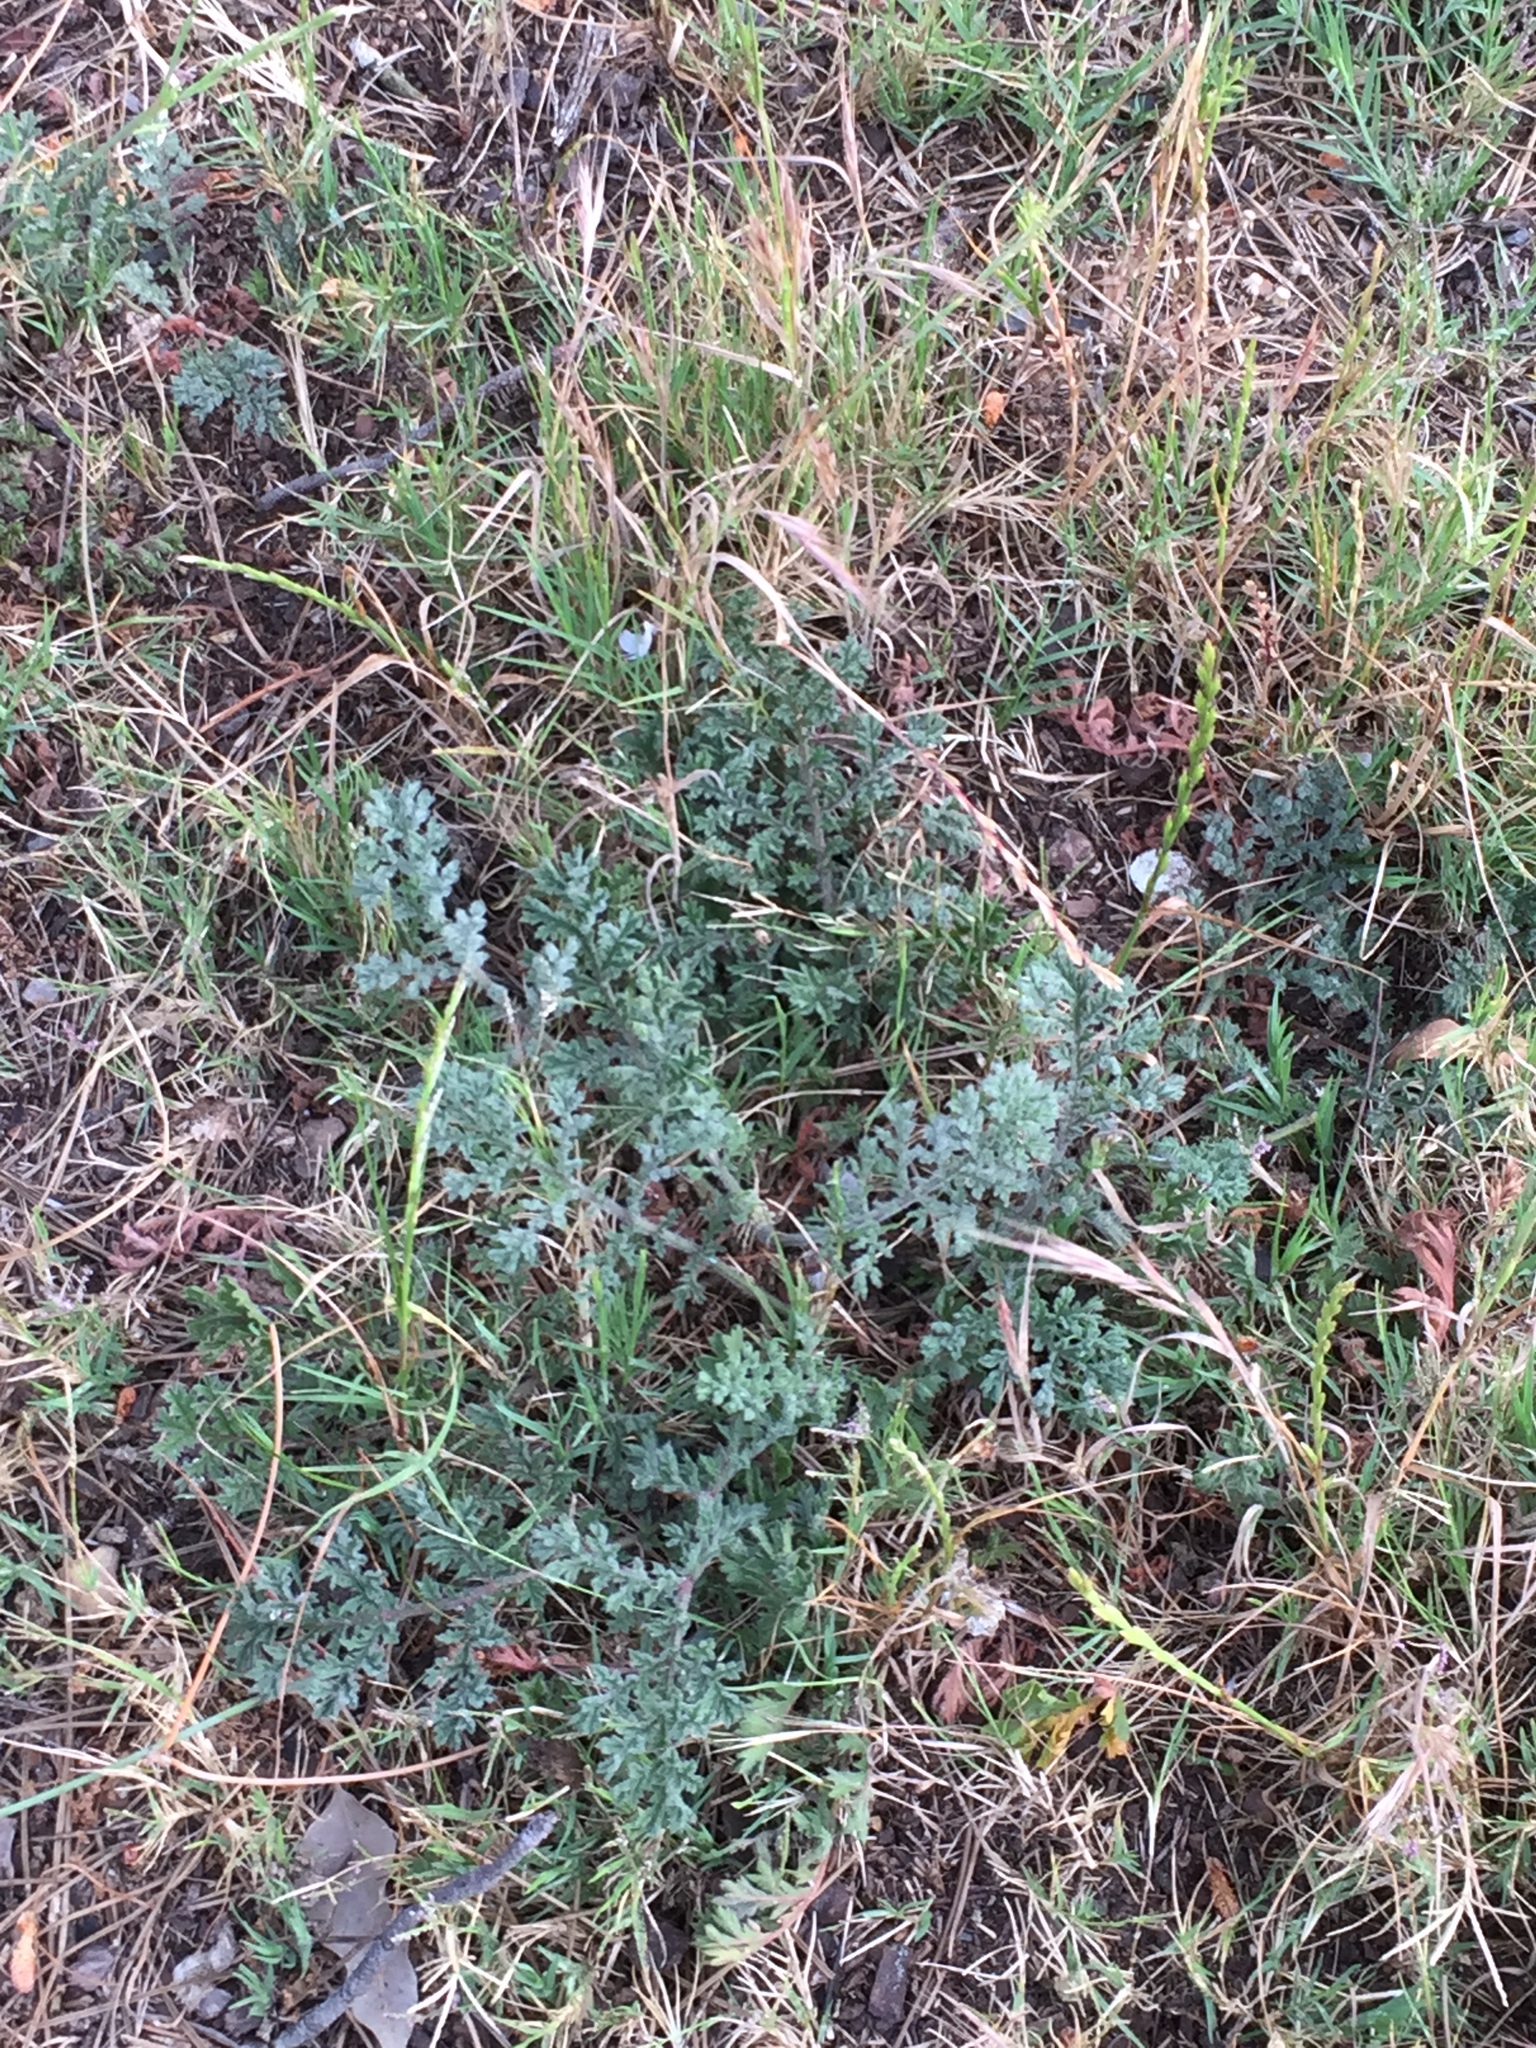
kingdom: Plantae
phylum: Tracheophyta
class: Magnoliopsida
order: Geraniales
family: Geraniaceae
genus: Pelargonium
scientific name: Pelargonium triste
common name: Night-scent pelargonium
